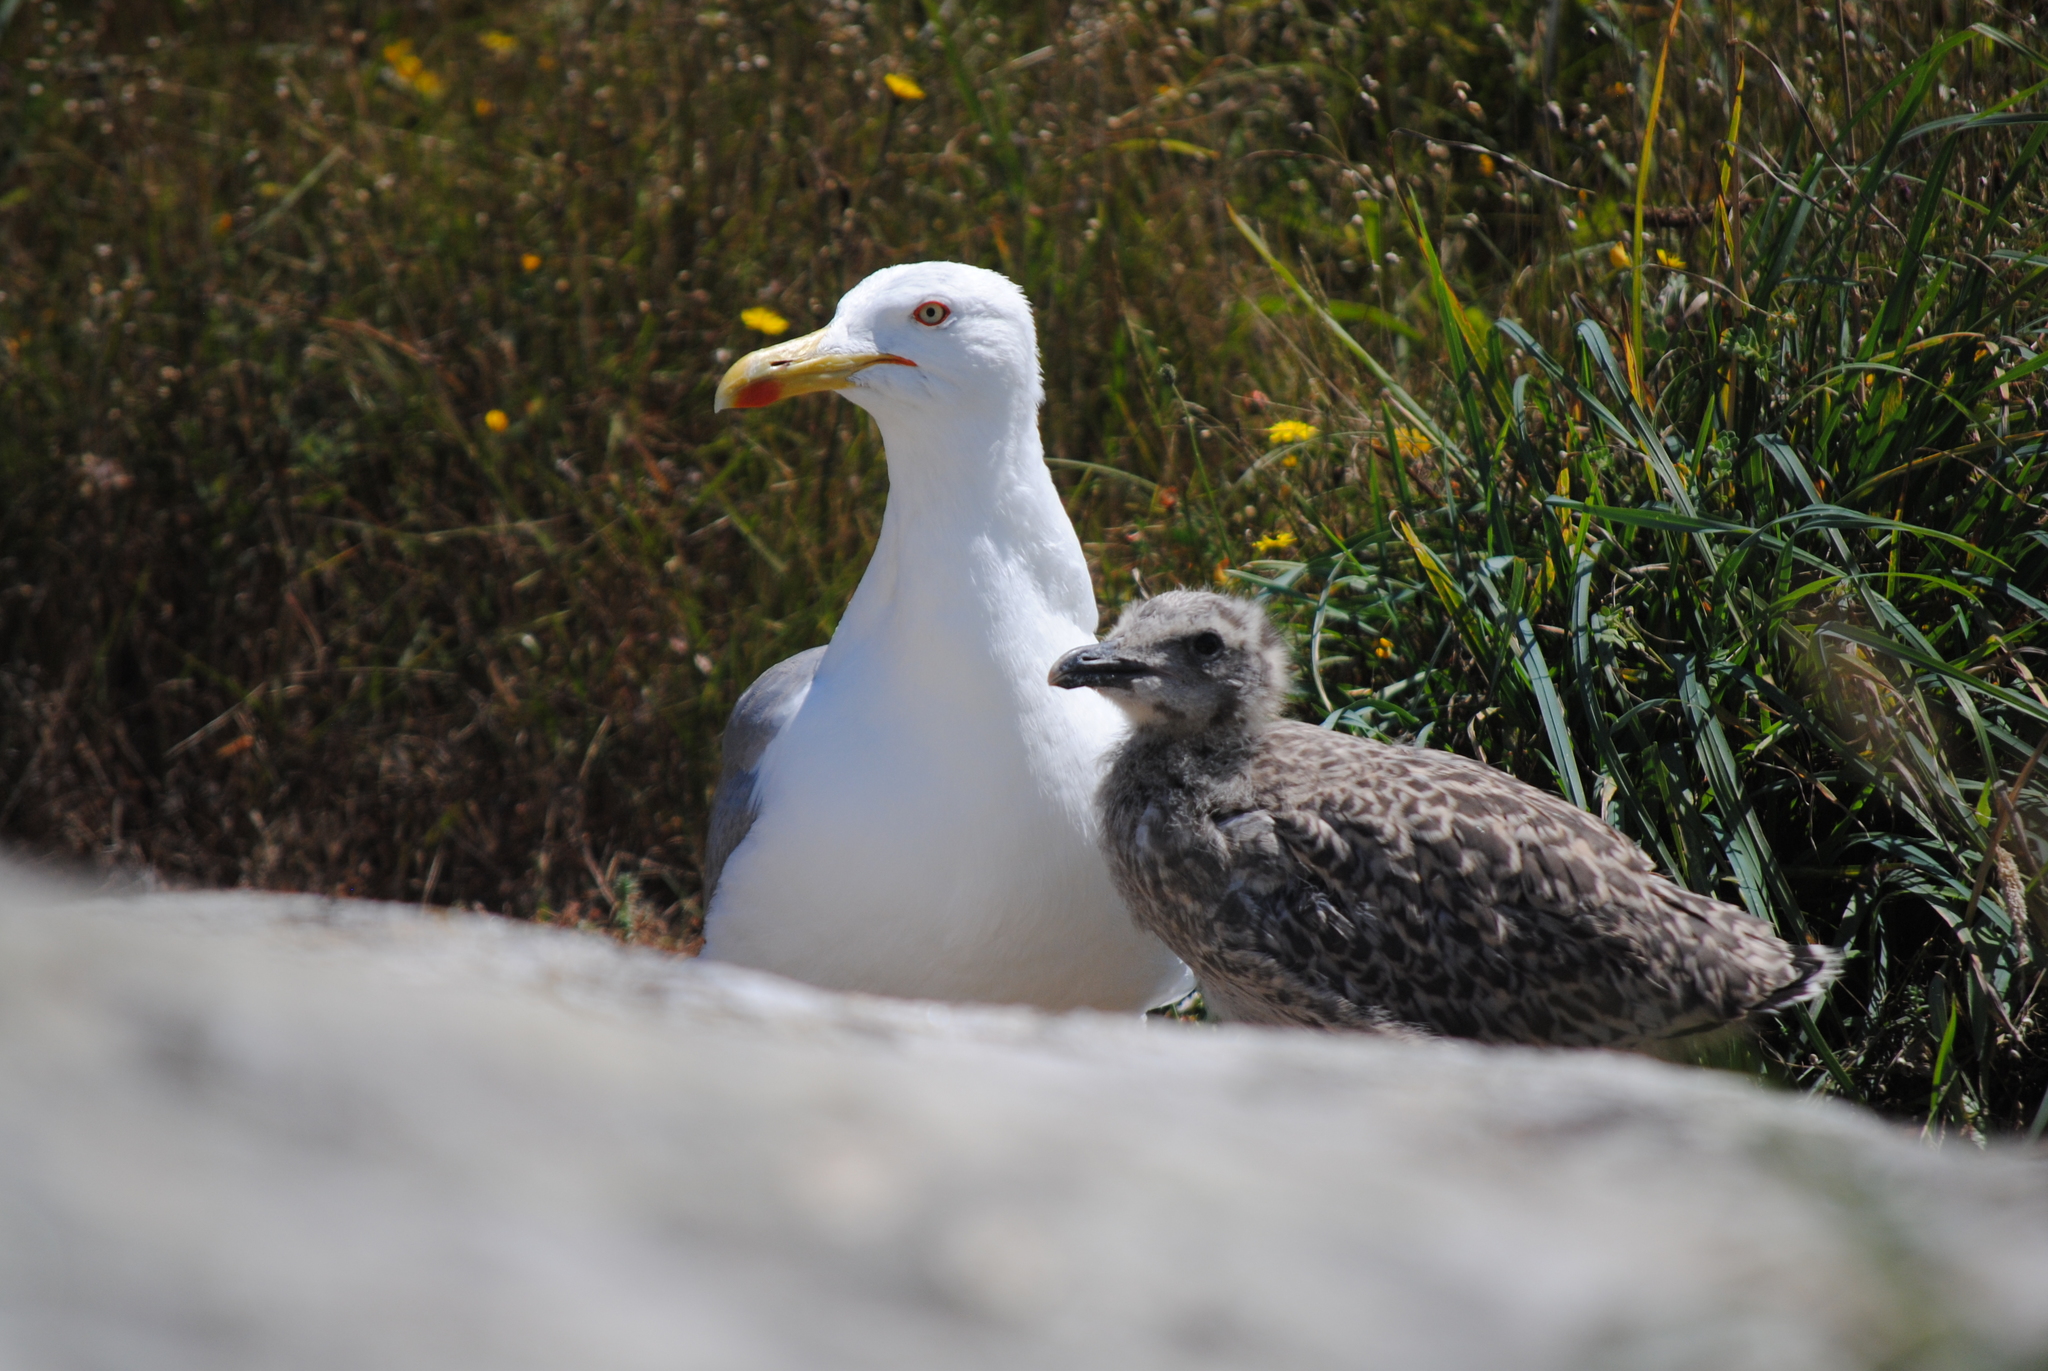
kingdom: Animalia
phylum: Chordata
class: Aves
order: Charadriiformes
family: Laridae
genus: Larus
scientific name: Larus michahellis
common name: Yellow-legged gull
